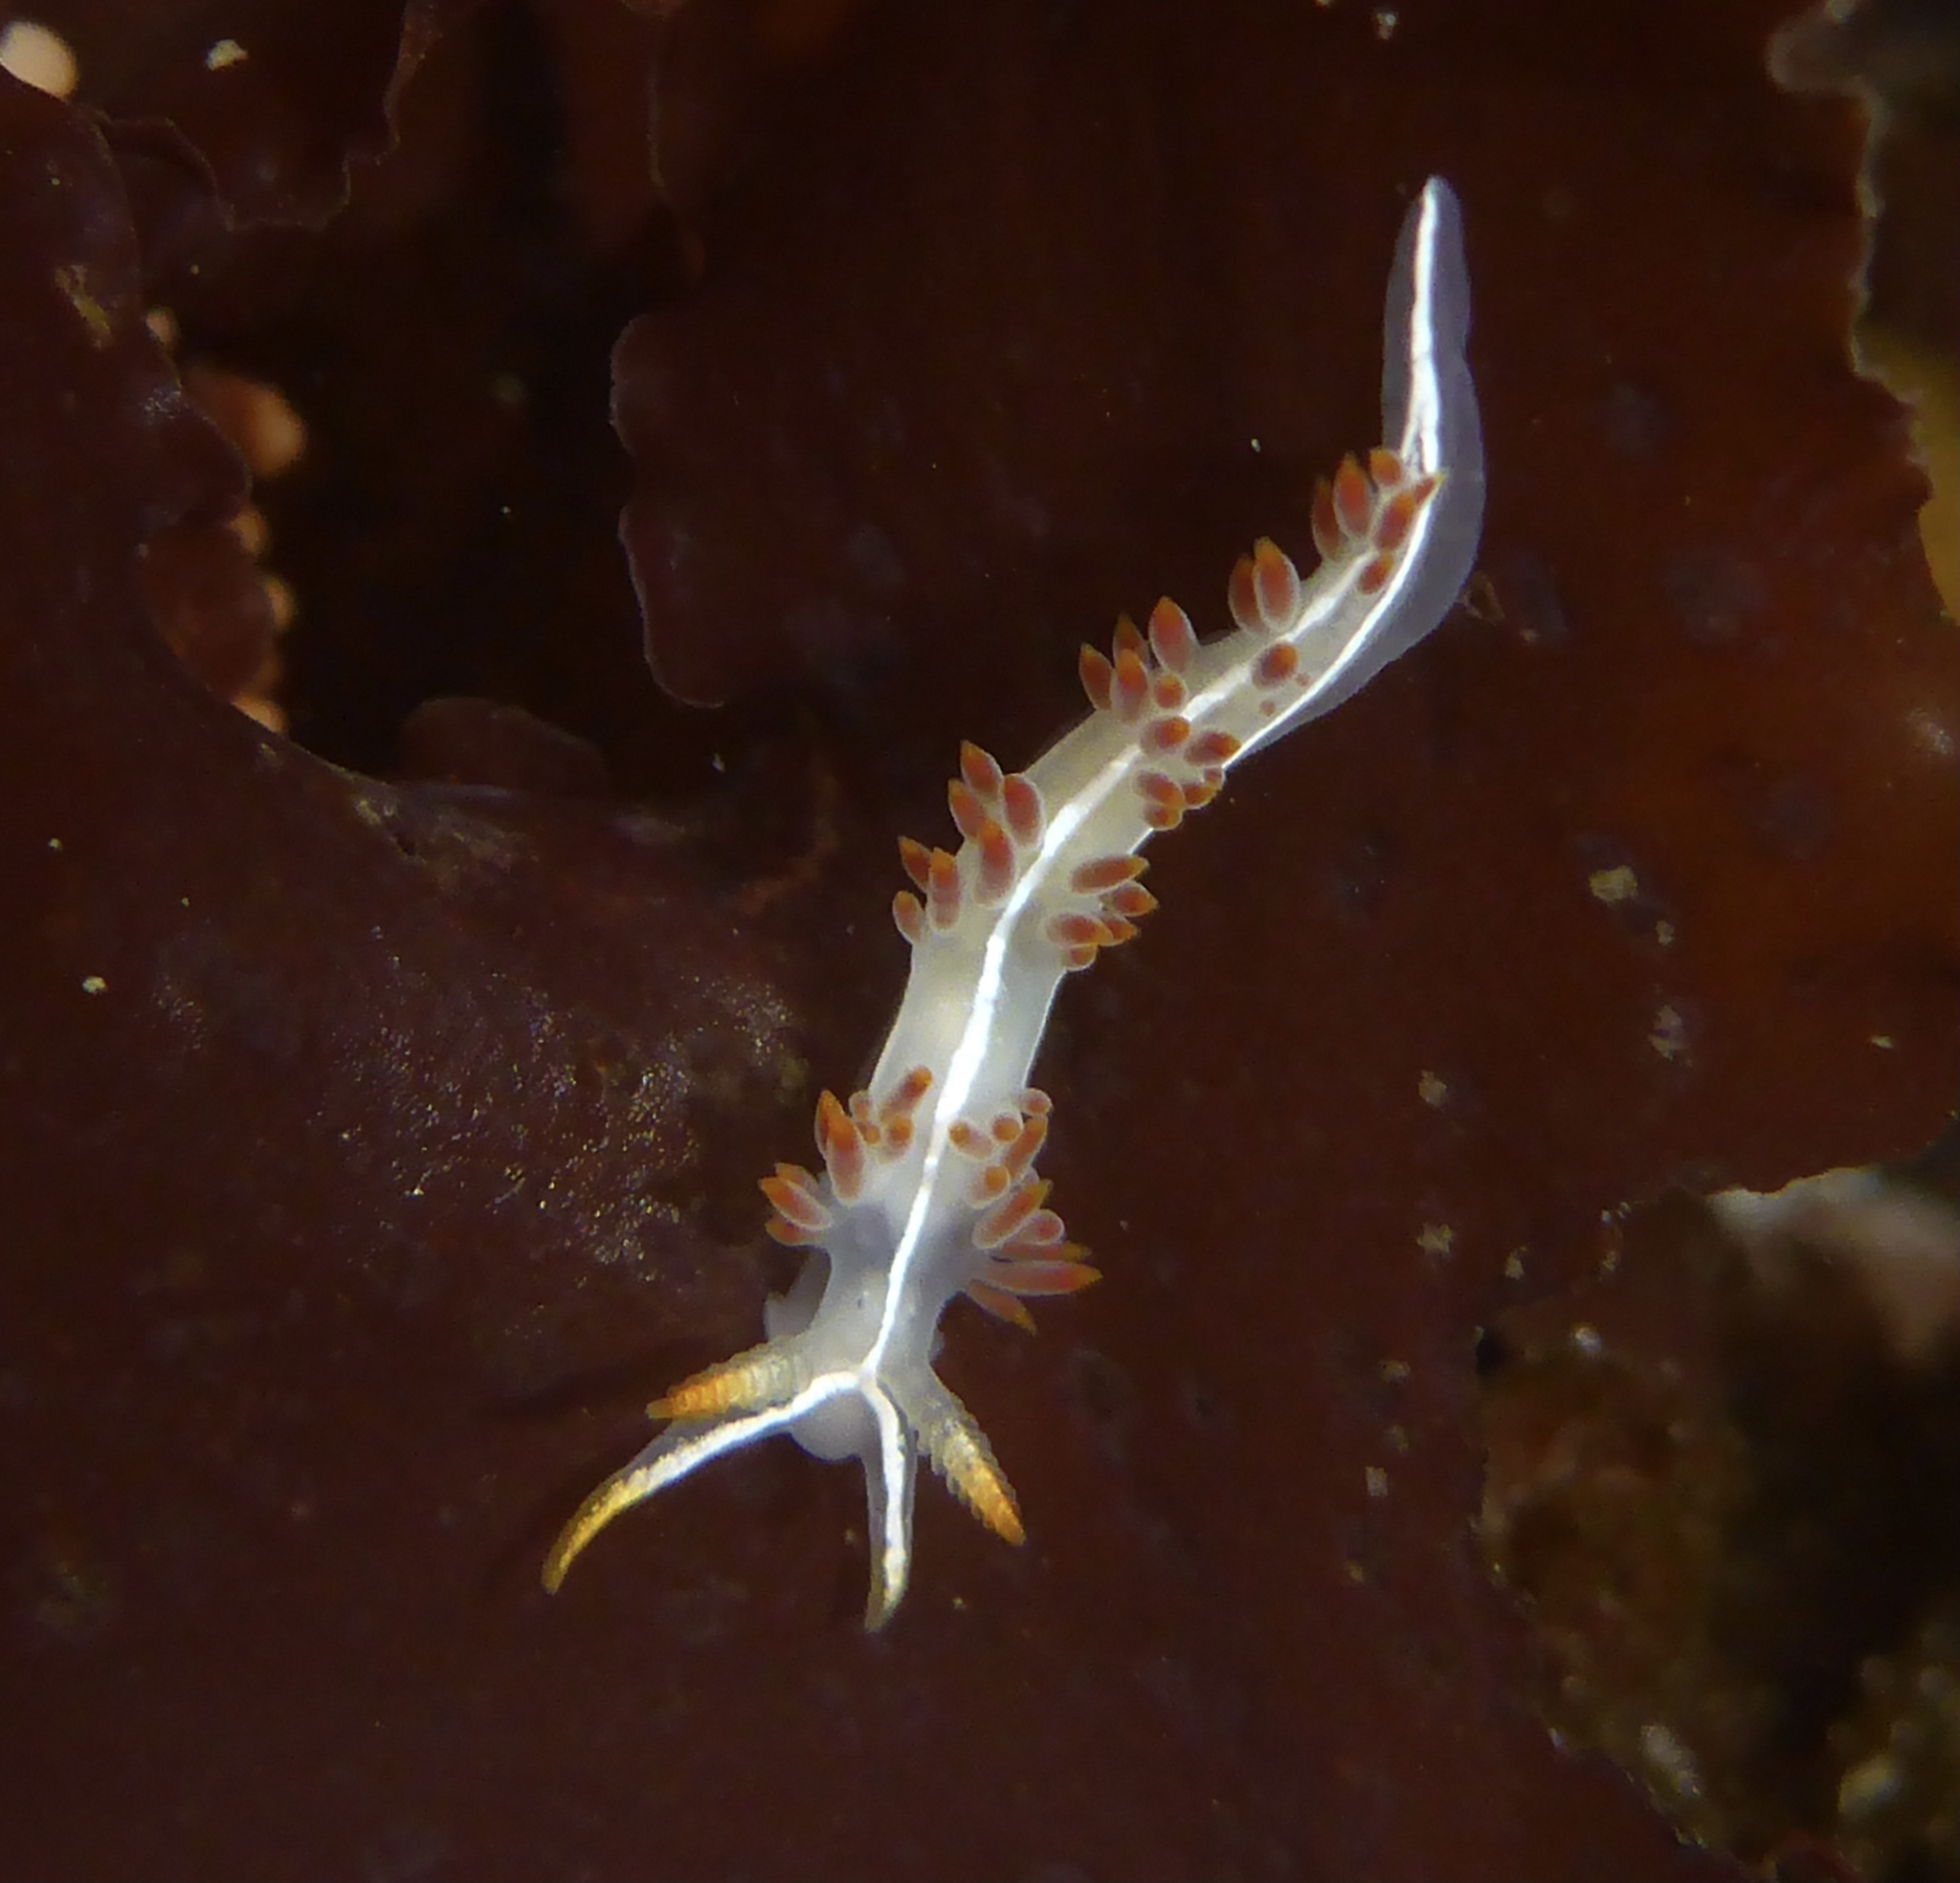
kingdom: Animalia
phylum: Mollusca
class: Gastropoda
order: Nudibranchia
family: Coryphellidae
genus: Coryphella
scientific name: Coryphella trilineata
